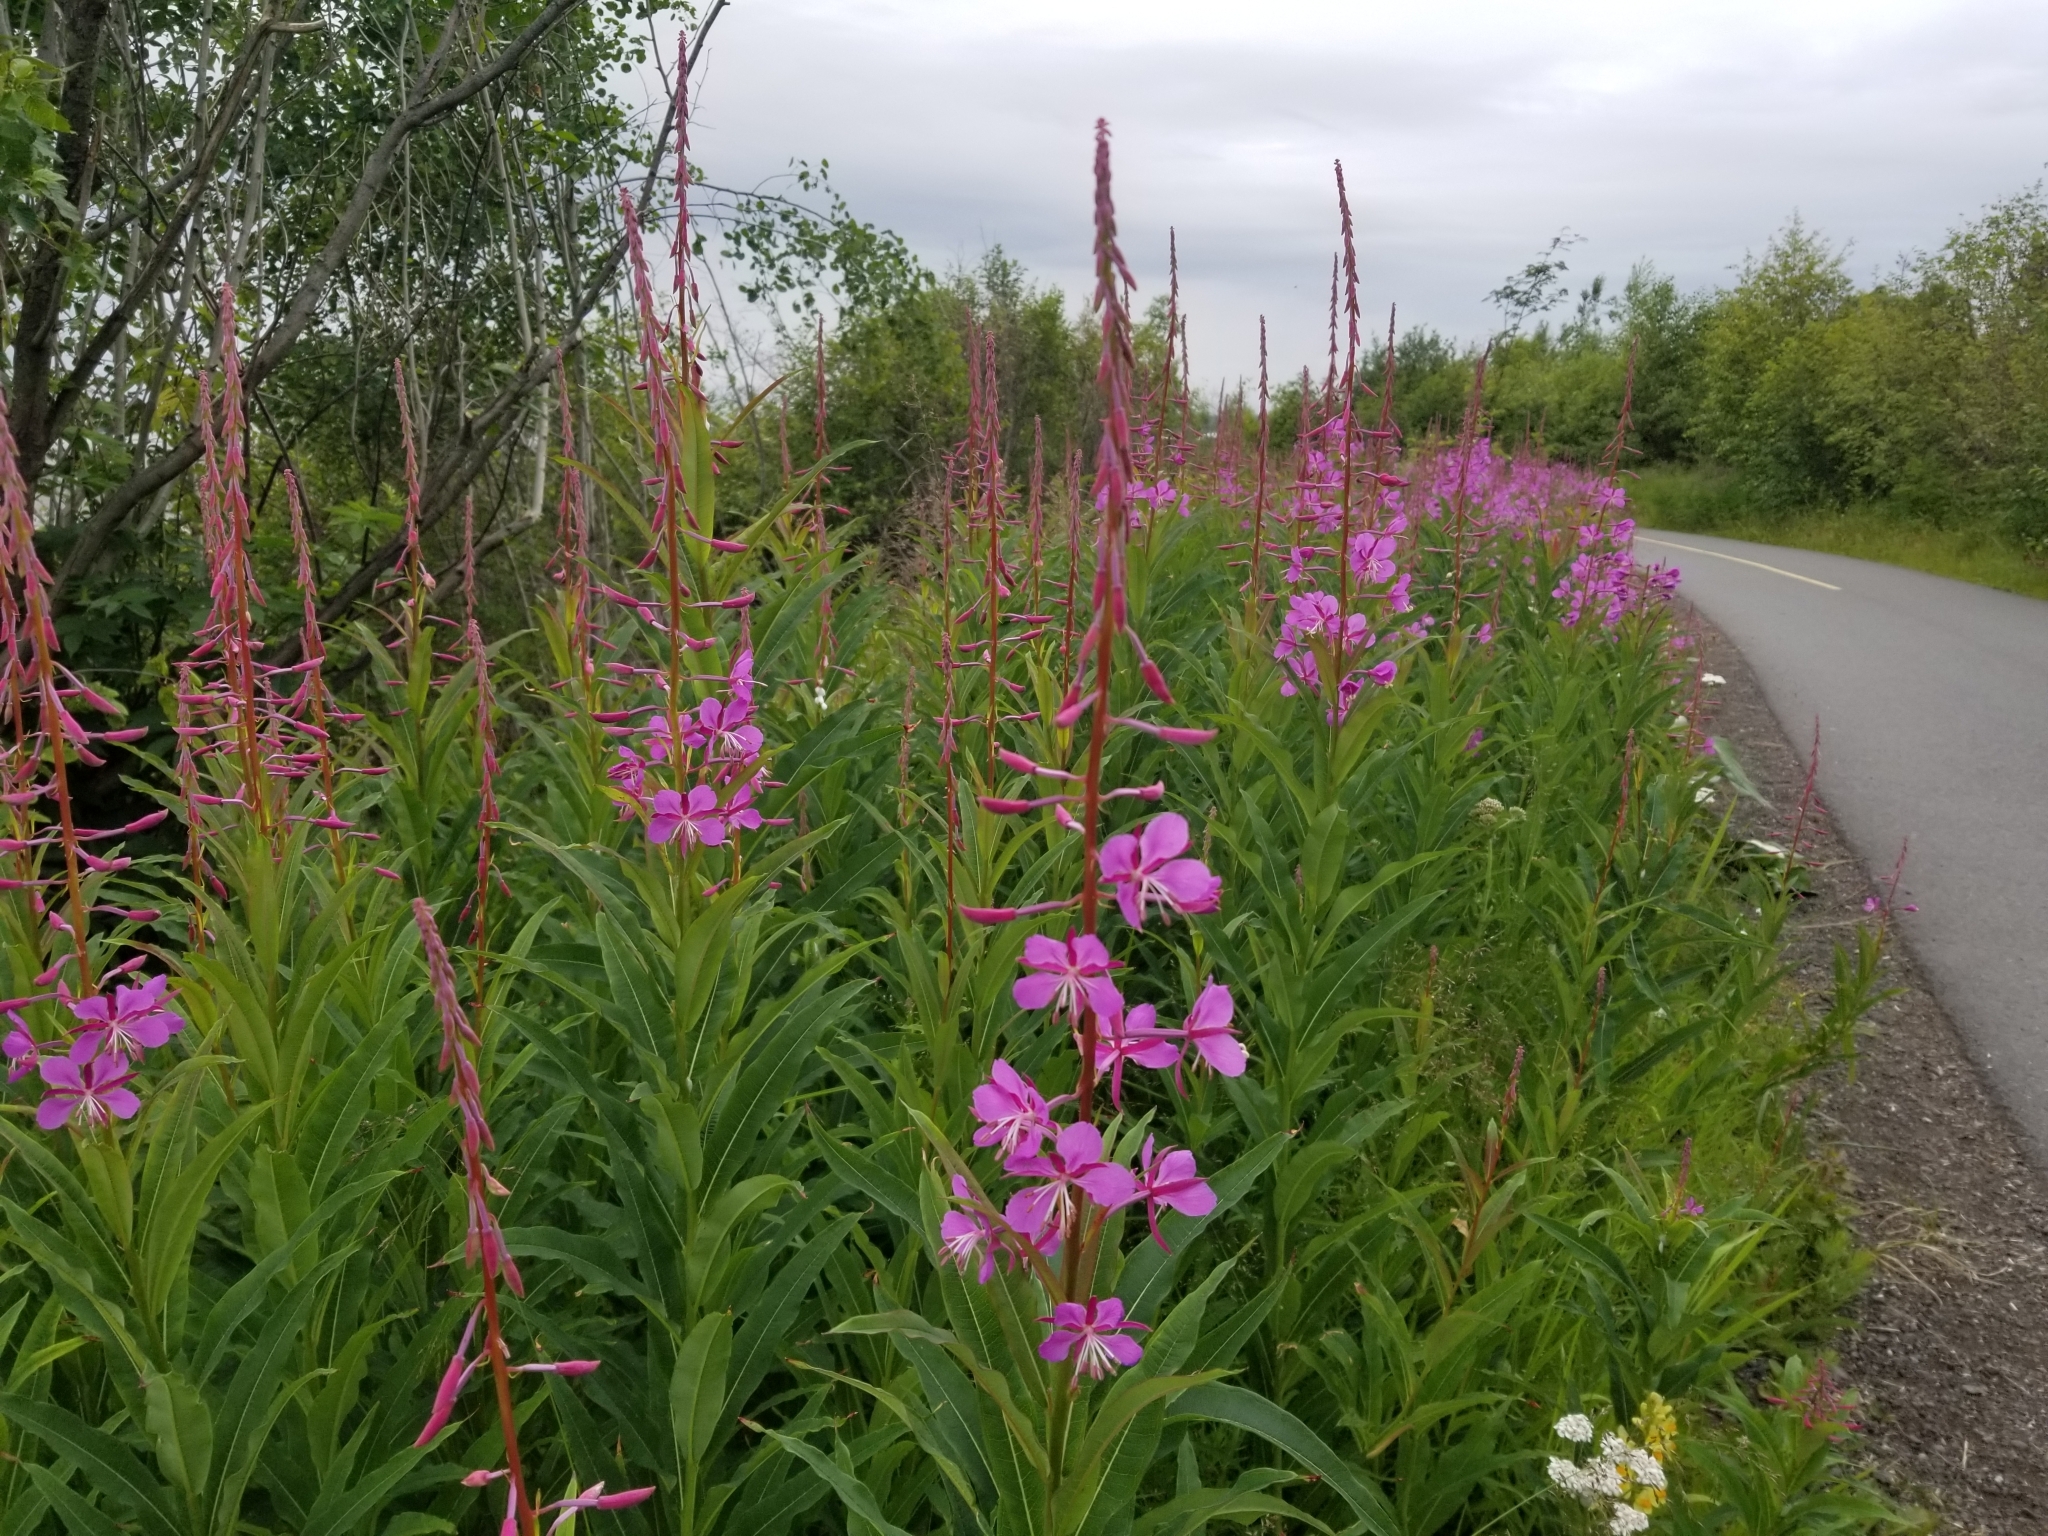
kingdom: Plantae
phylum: Tracheophyta
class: Magnoliopsida
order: Myrtales
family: Onagraceae
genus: Chamaenerion
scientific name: Chamaenerion angustifolium
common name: Fireweed
